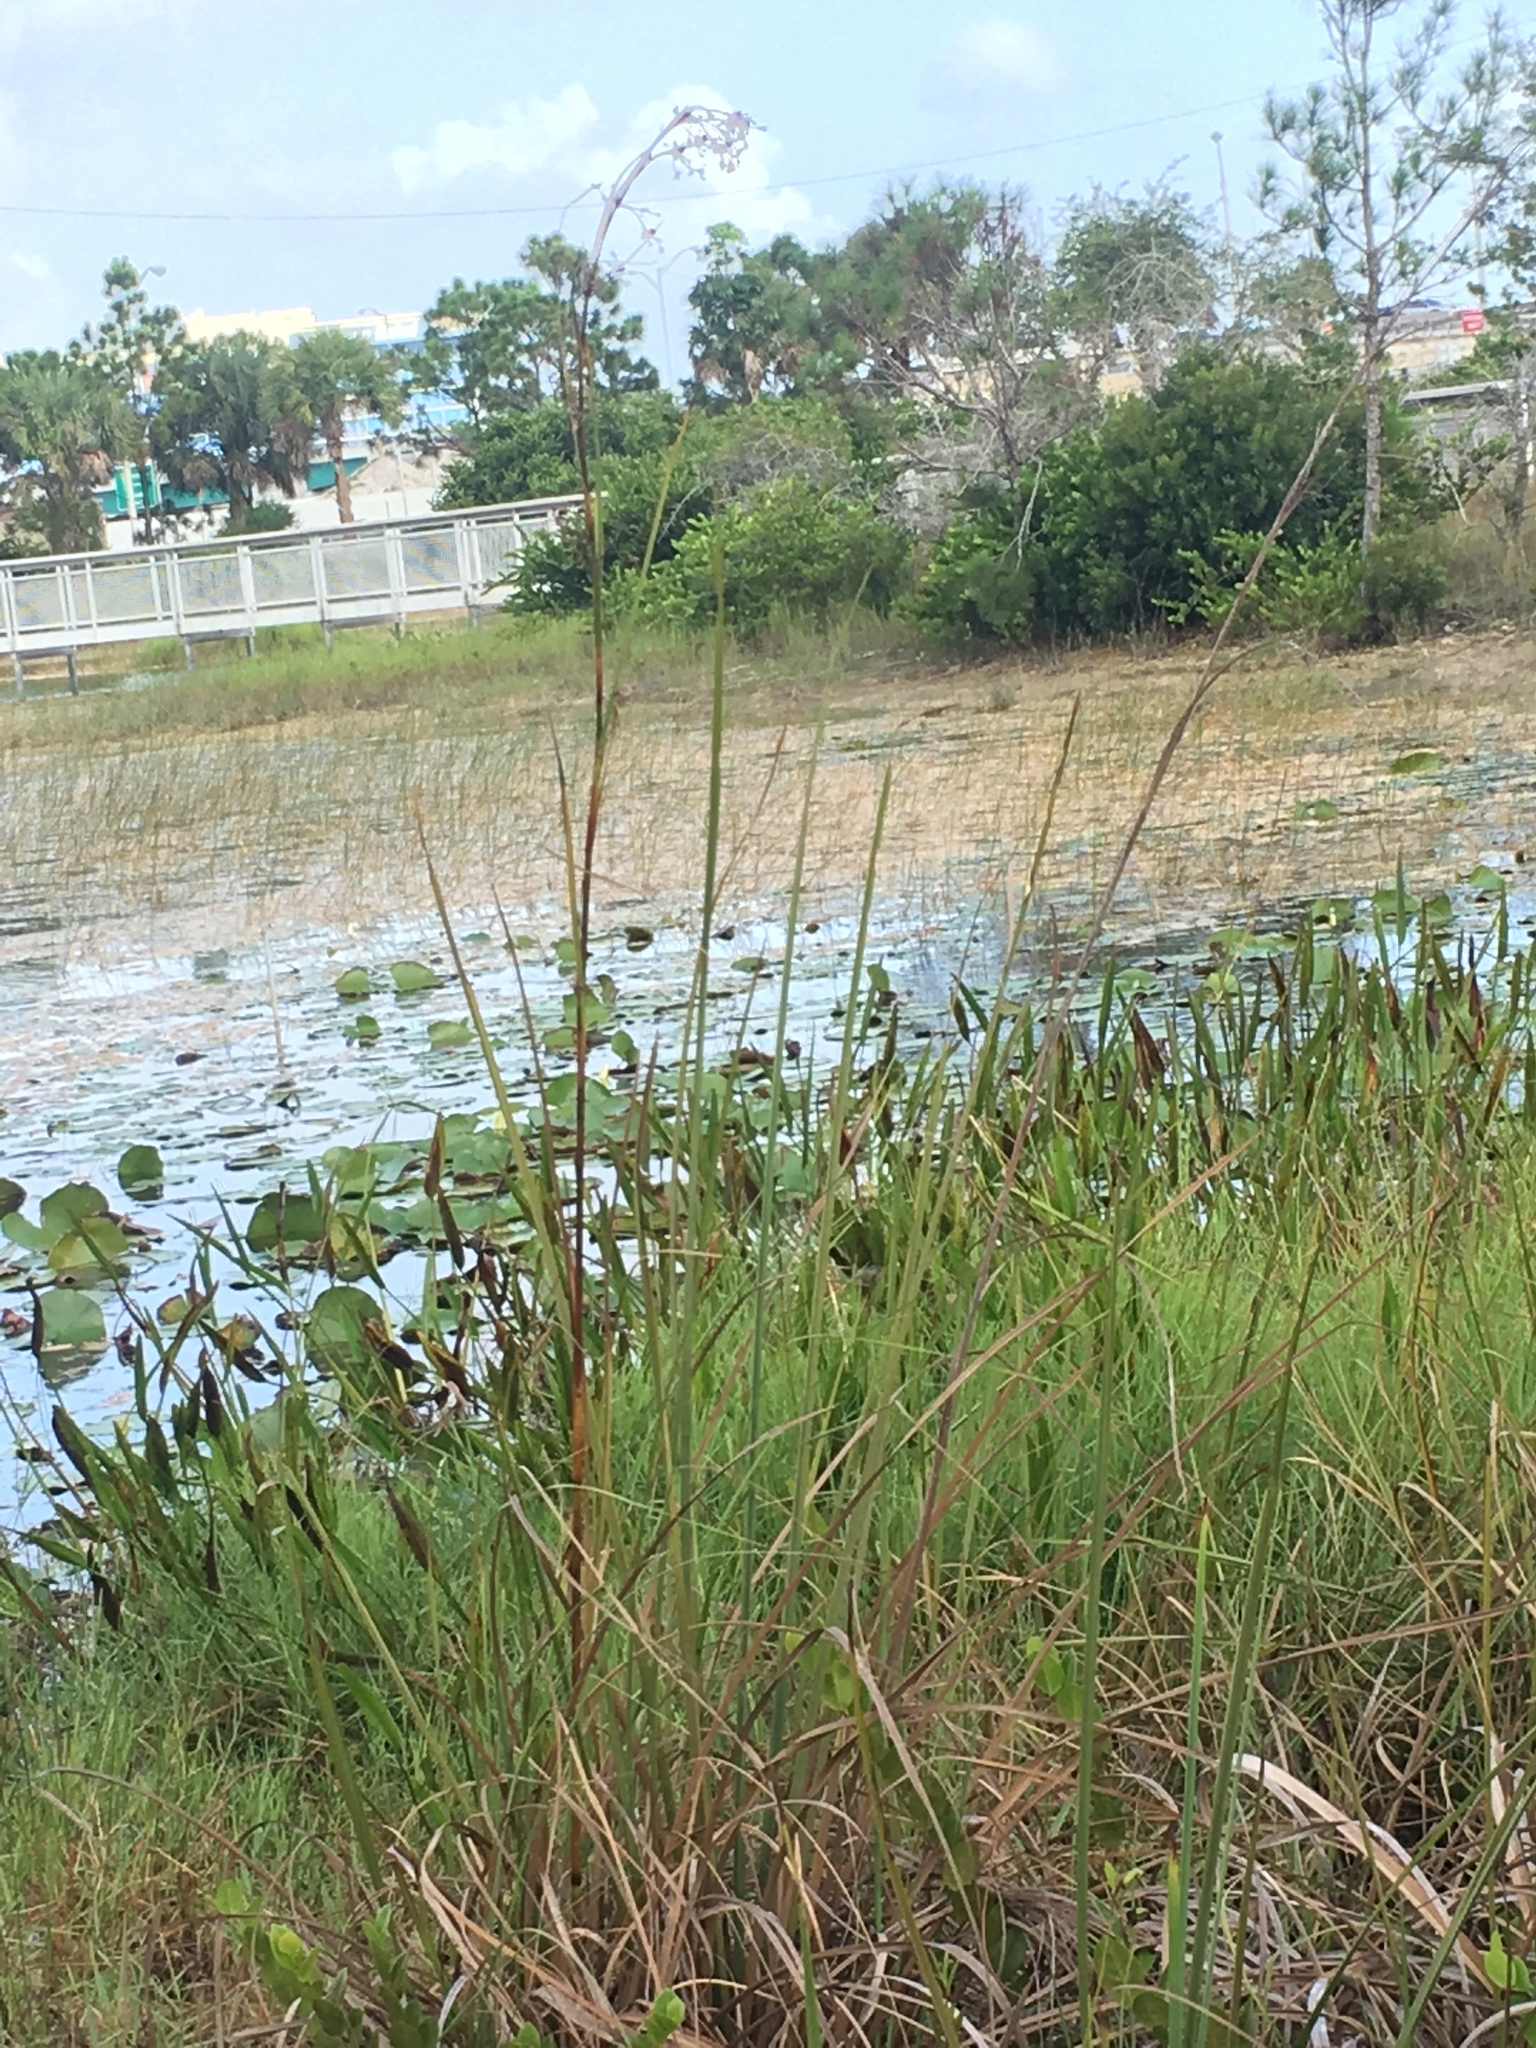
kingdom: Plantae
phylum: Tracheophyta
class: Liliopsida
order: Poales
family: Cyperaceae
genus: Cladium
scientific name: Cladium mariscus
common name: Great fen-sedge
